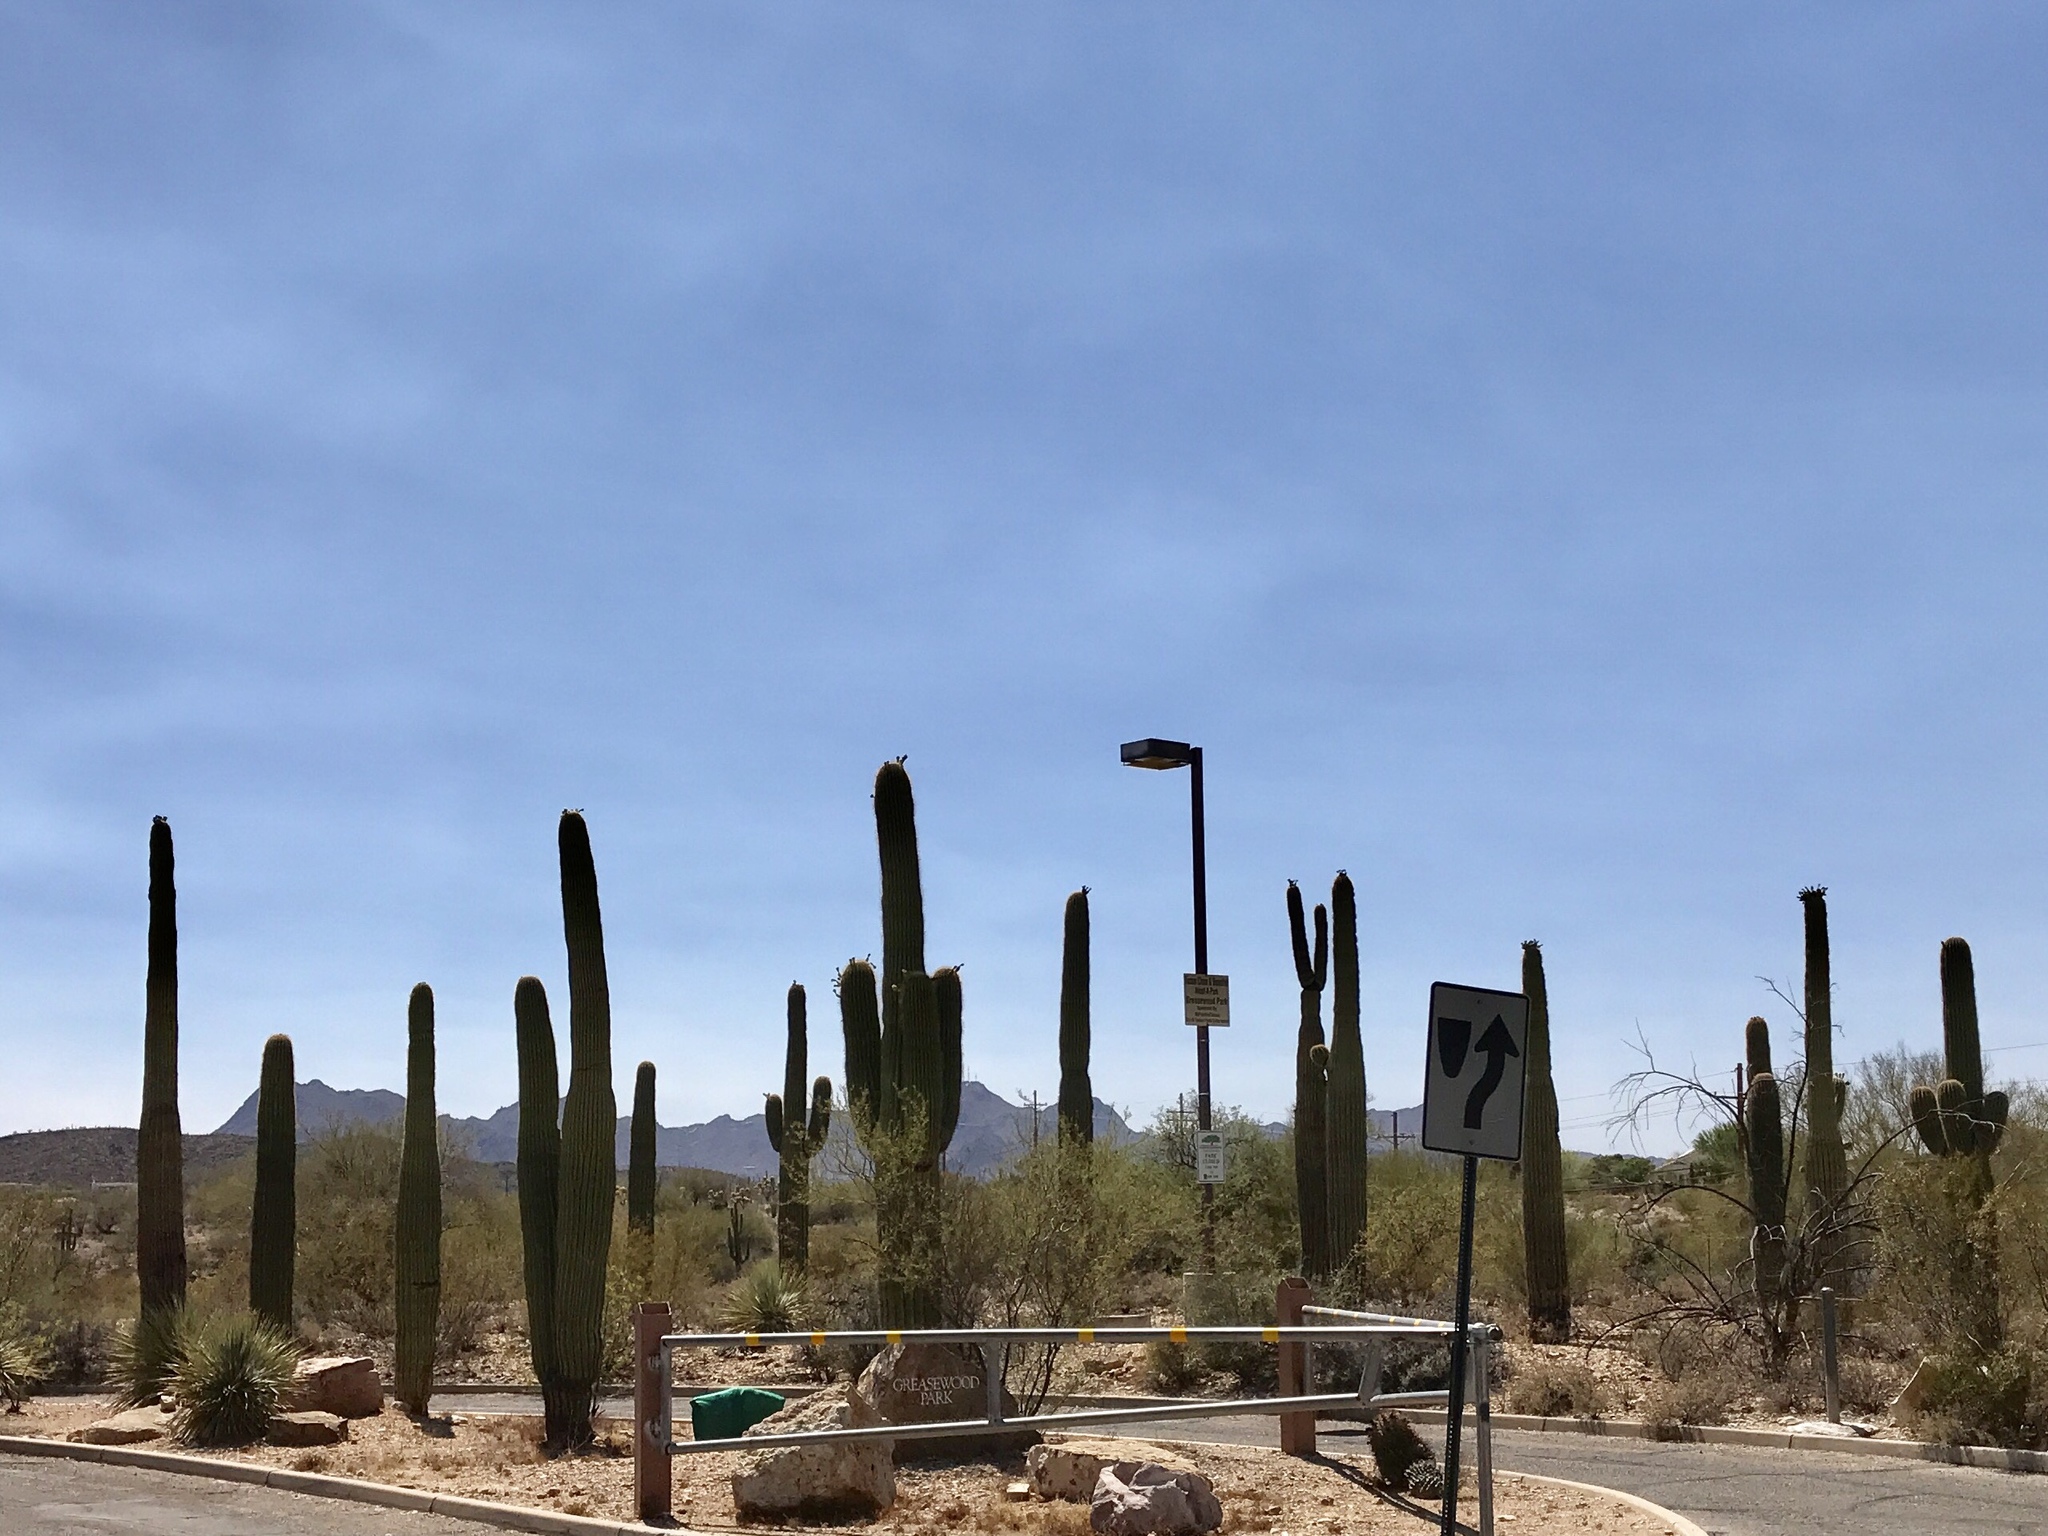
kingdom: Plantae
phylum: Tracheophyta
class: Magnoliopsida
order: Caryophyllales
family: Cactaceae
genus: Carnegiea
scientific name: Carnegiea gigantea
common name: Saguaro
